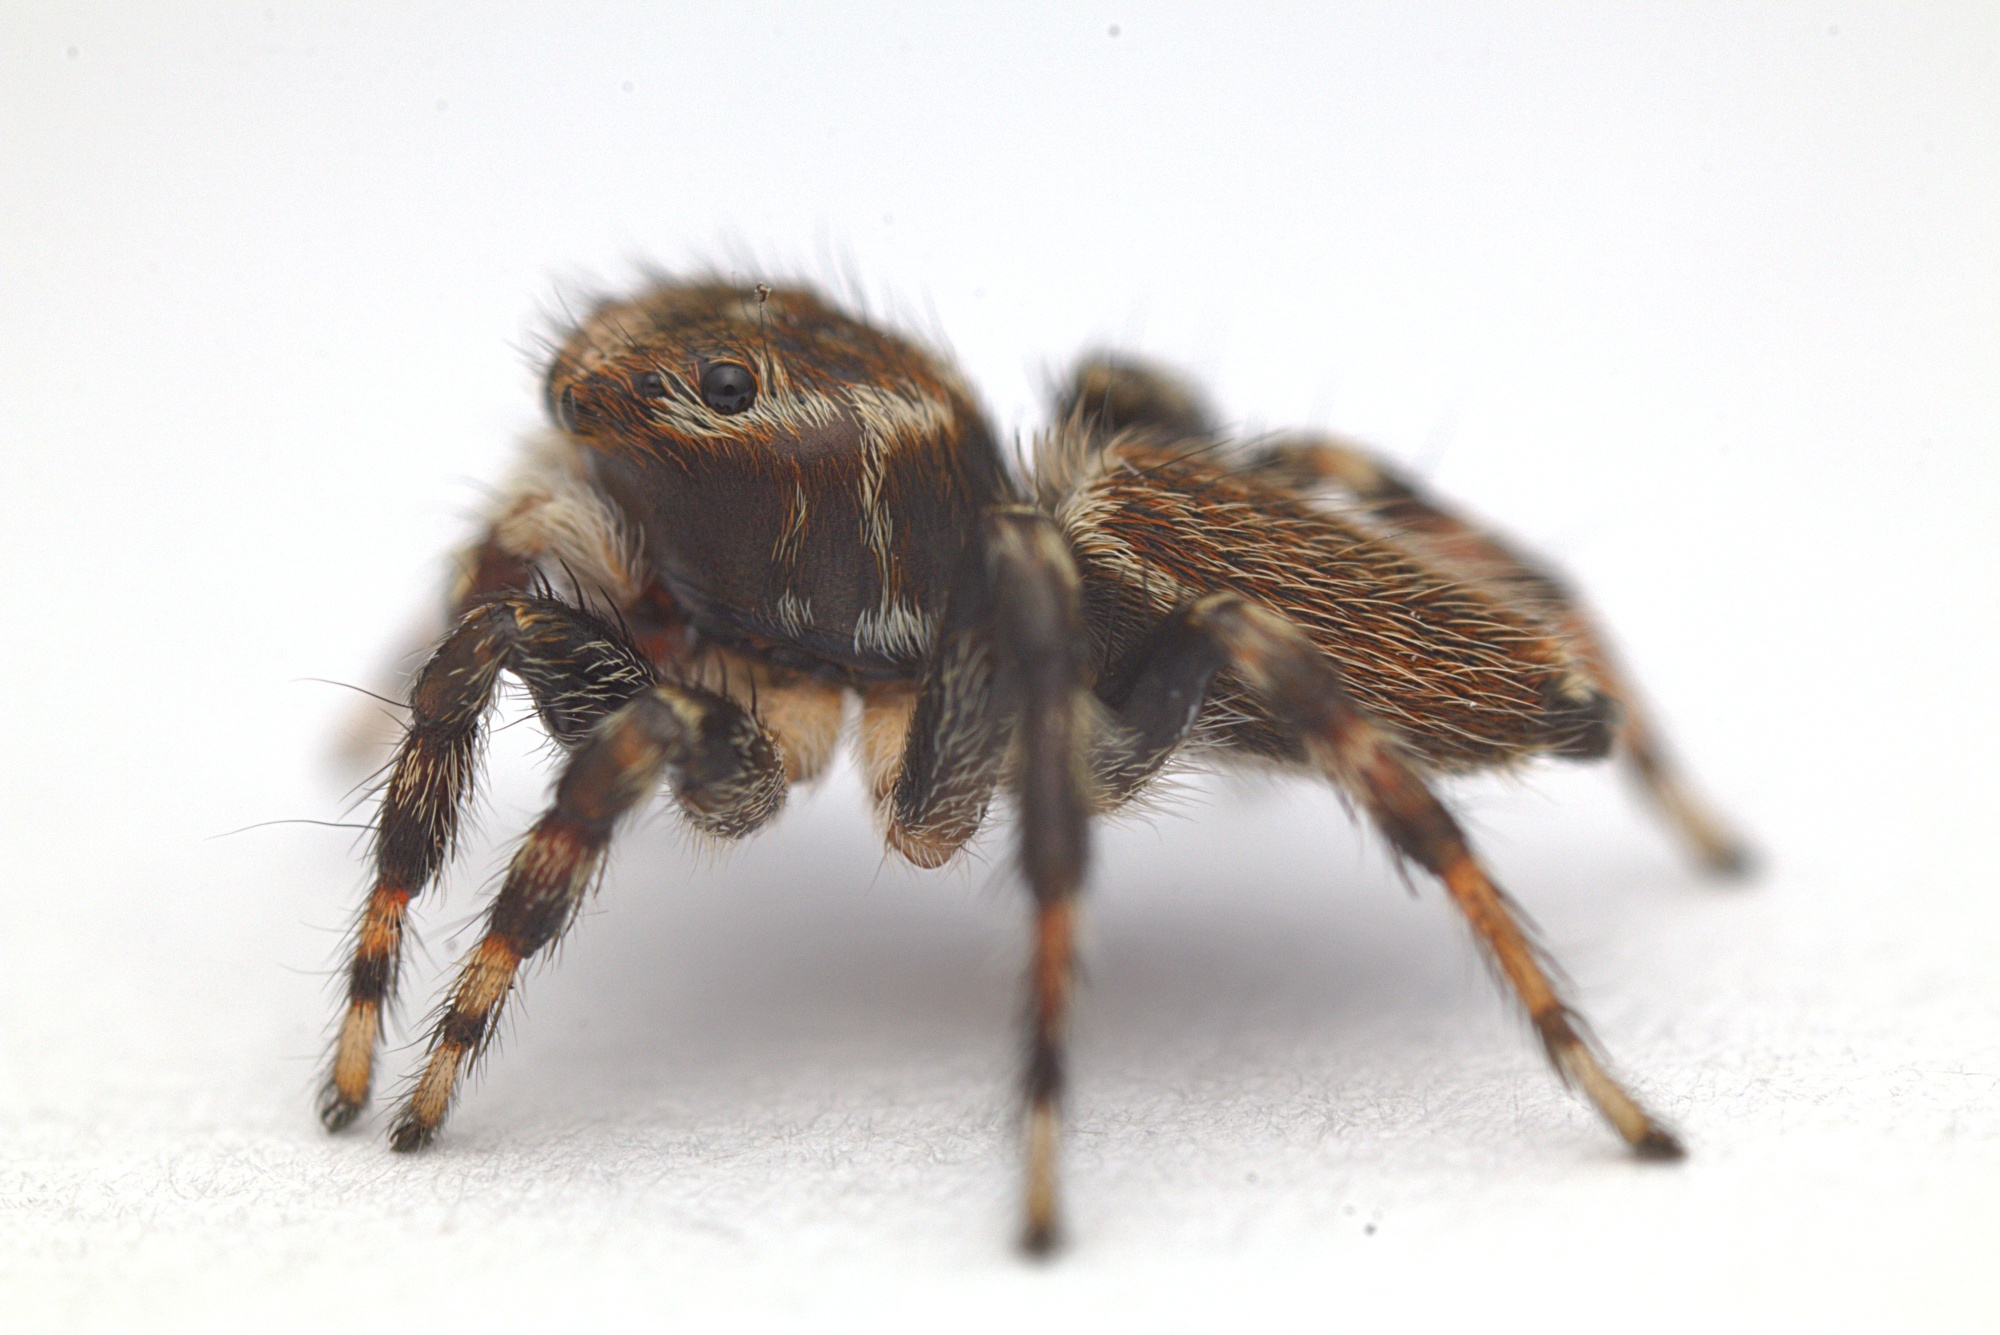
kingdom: Animalia
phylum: Arthropoda
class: Arachnida
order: Araneae
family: Salticidae
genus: Maratus
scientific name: Maratus griseus
